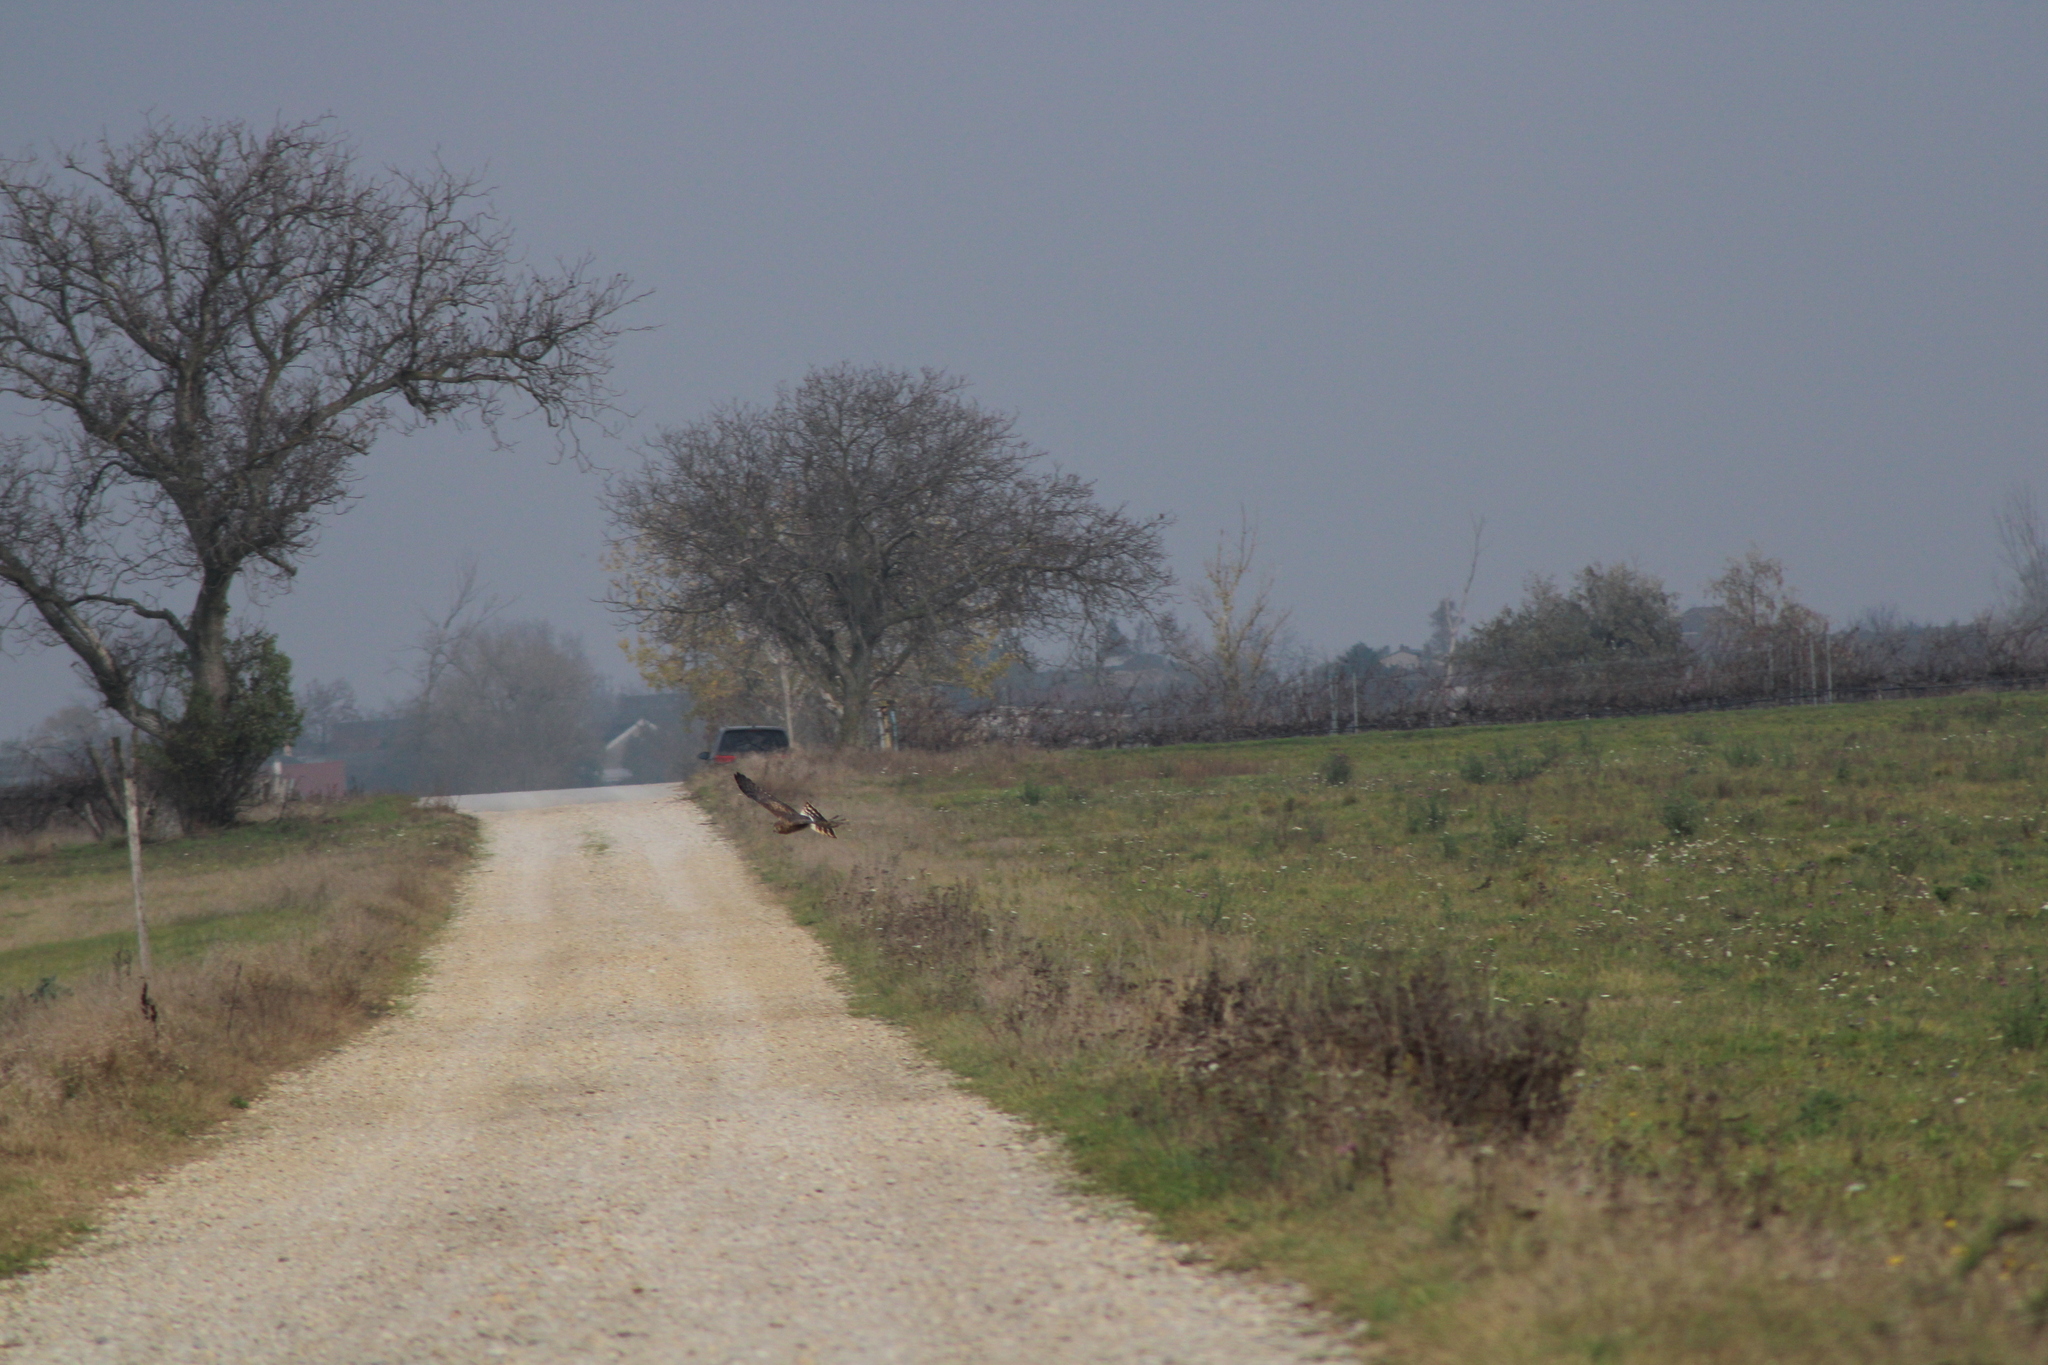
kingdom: Animalia
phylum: Chordata
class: Aves
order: Accipitriformes
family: Accipitridae
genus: Circus
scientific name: Circus cyaneus
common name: Hen harrier
